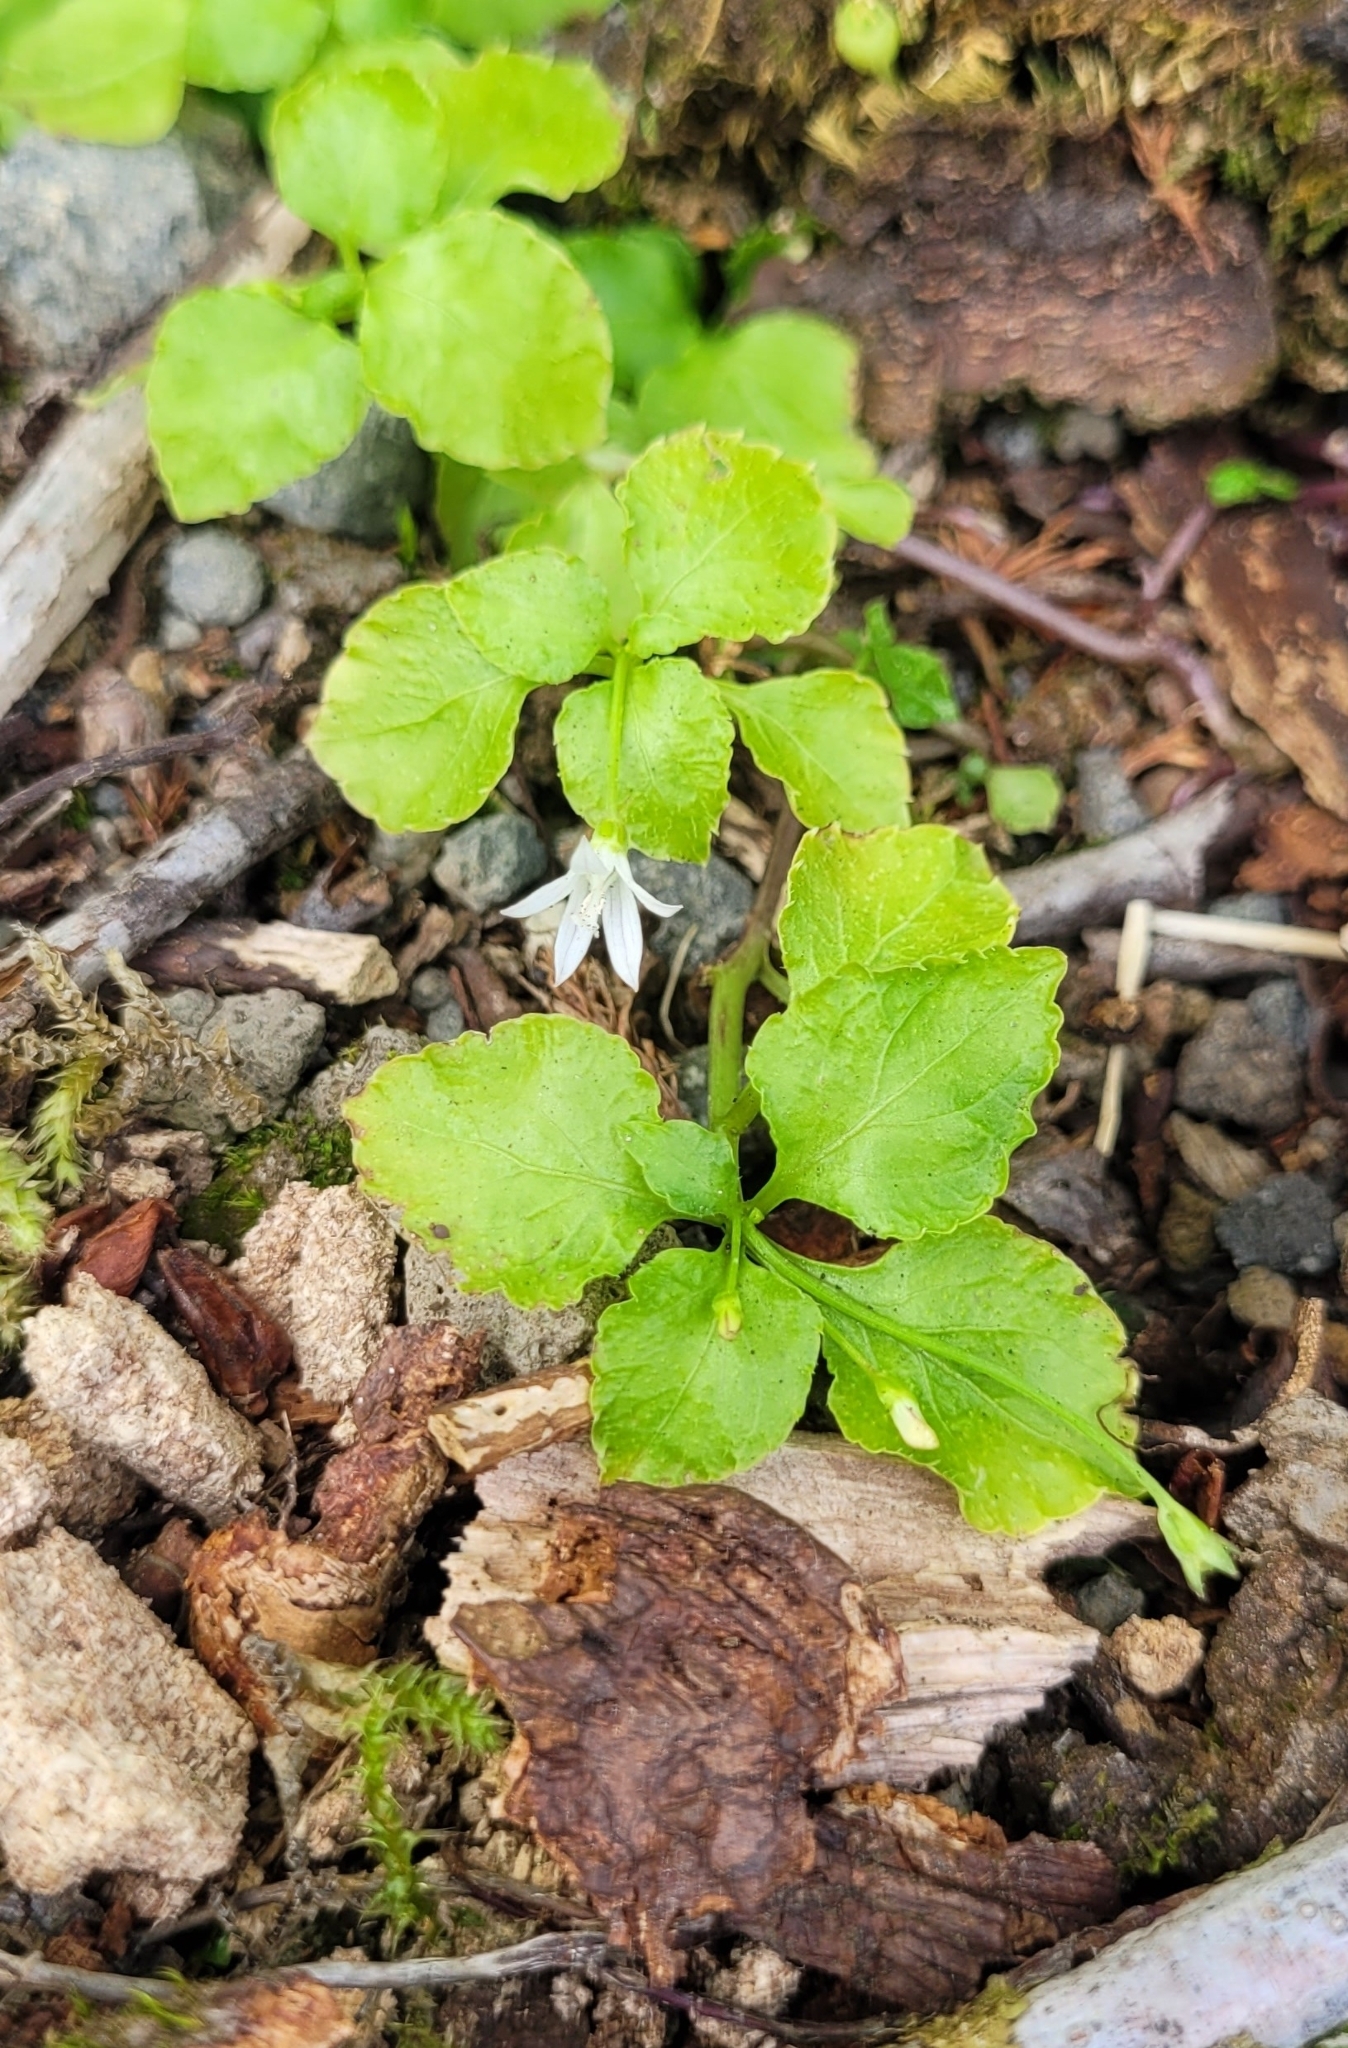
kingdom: Plantae
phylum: Tracheophyta
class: Magnoliopsida
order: Asterales
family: Campanulaceae
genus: Peracarpa
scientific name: Peracarpa carnosa
